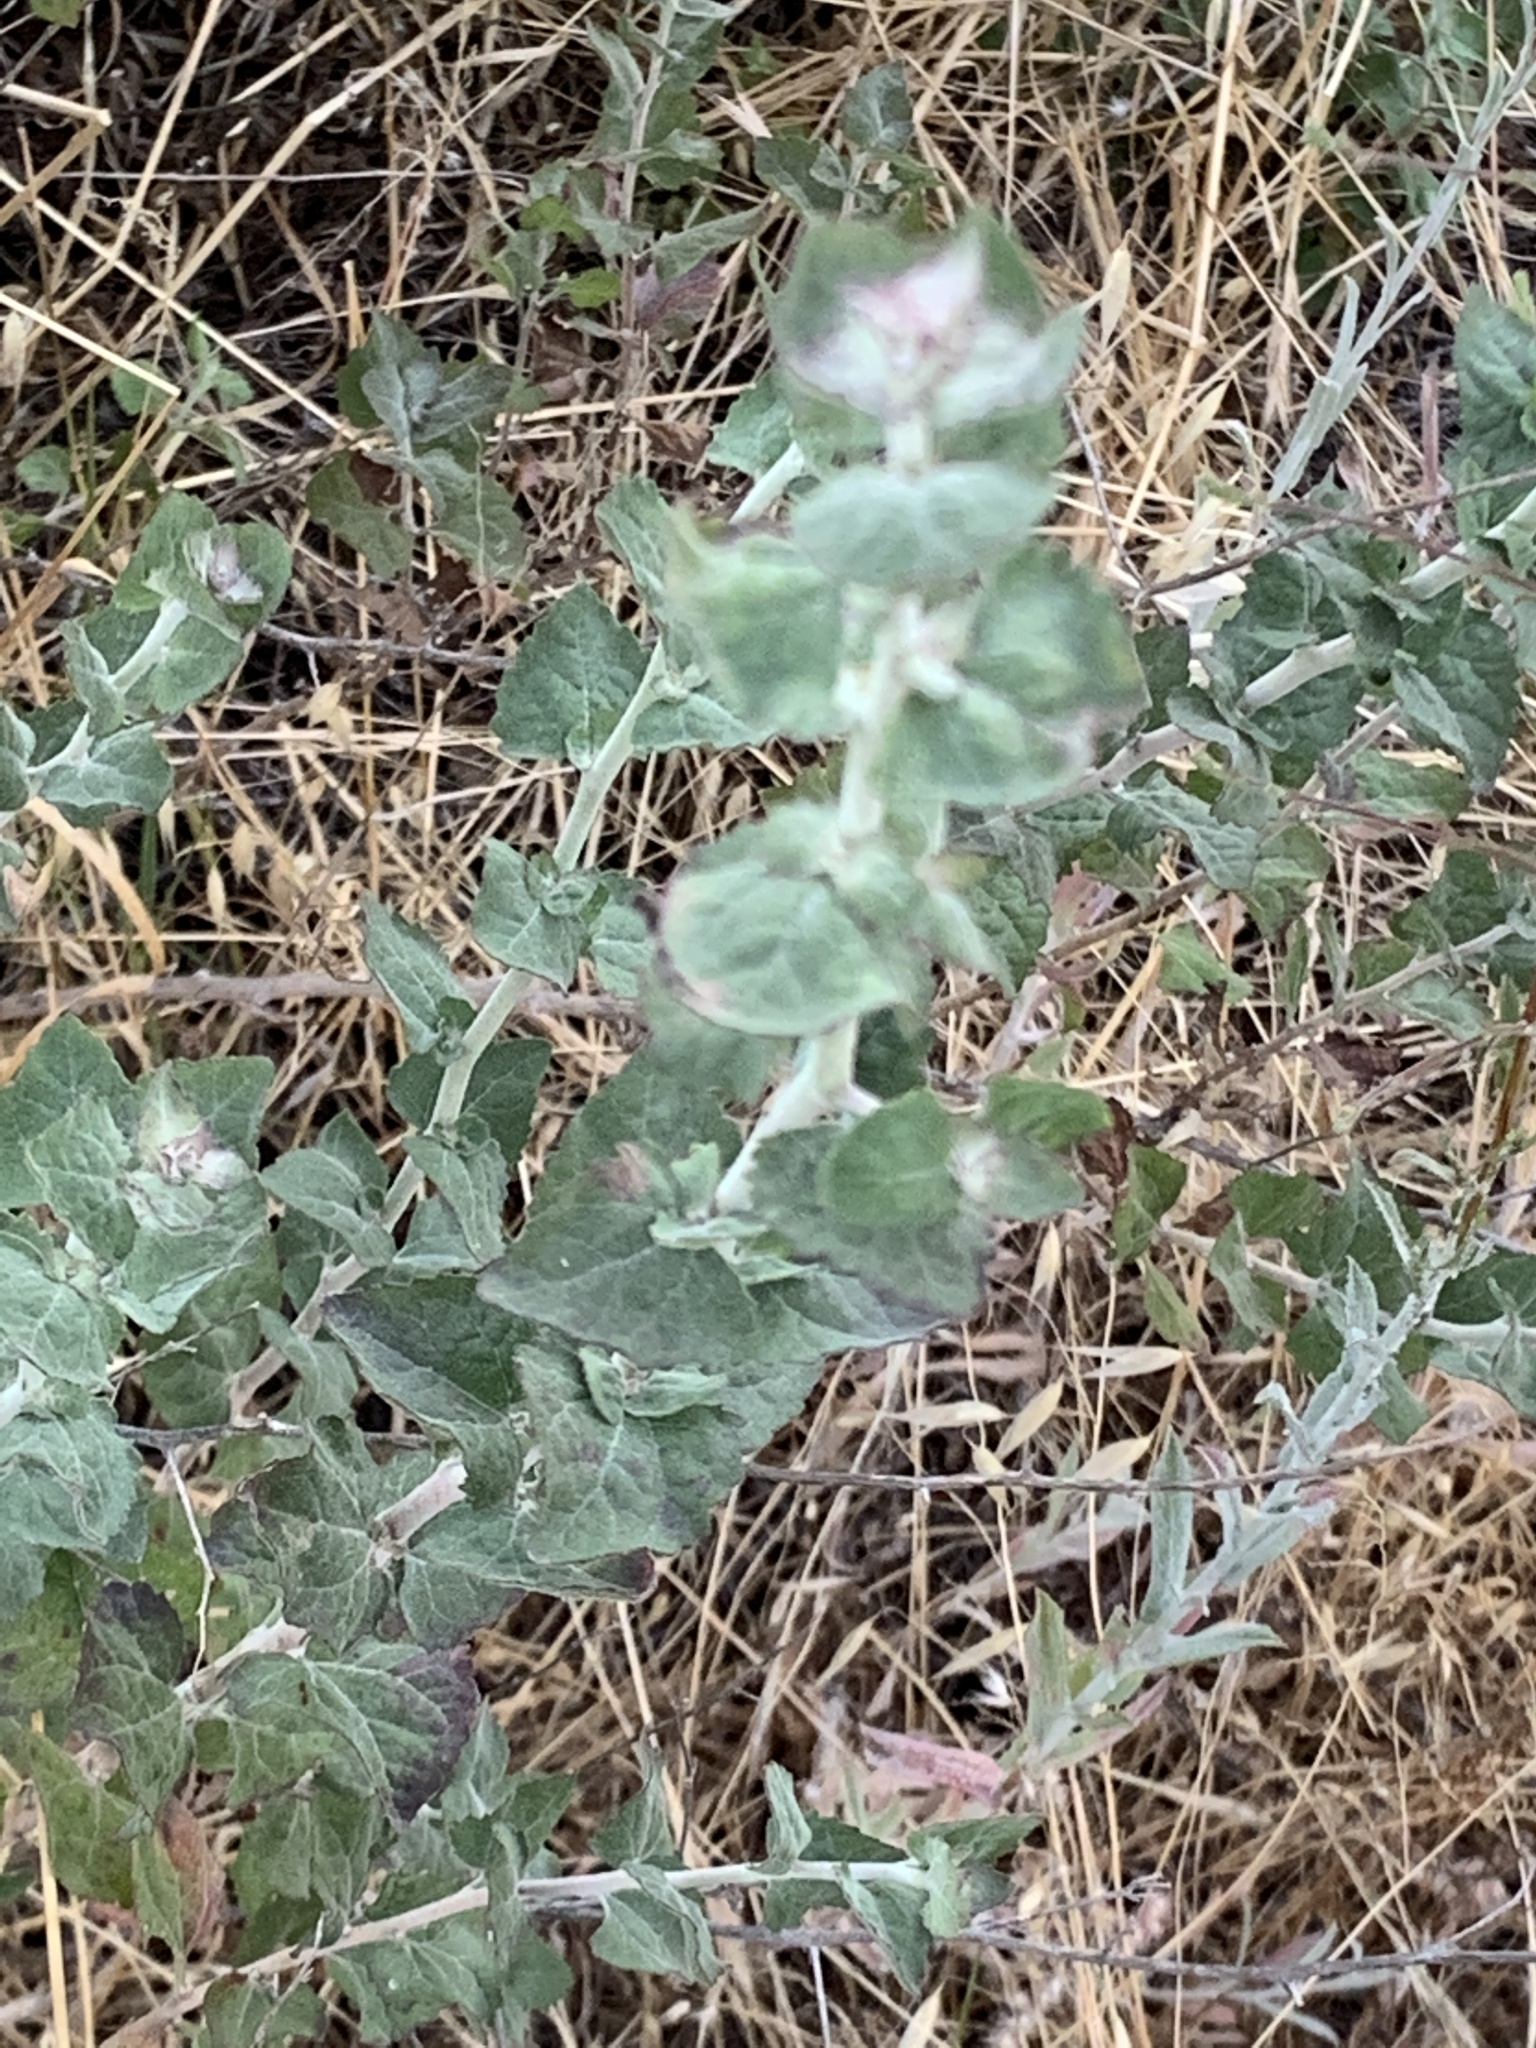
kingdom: Plantae
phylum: Tracheophyta
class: Magnoliopsida
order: Asterales
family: Asteraceae
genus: Brickellia
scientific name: Brickellia californica
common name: California brickellbush
